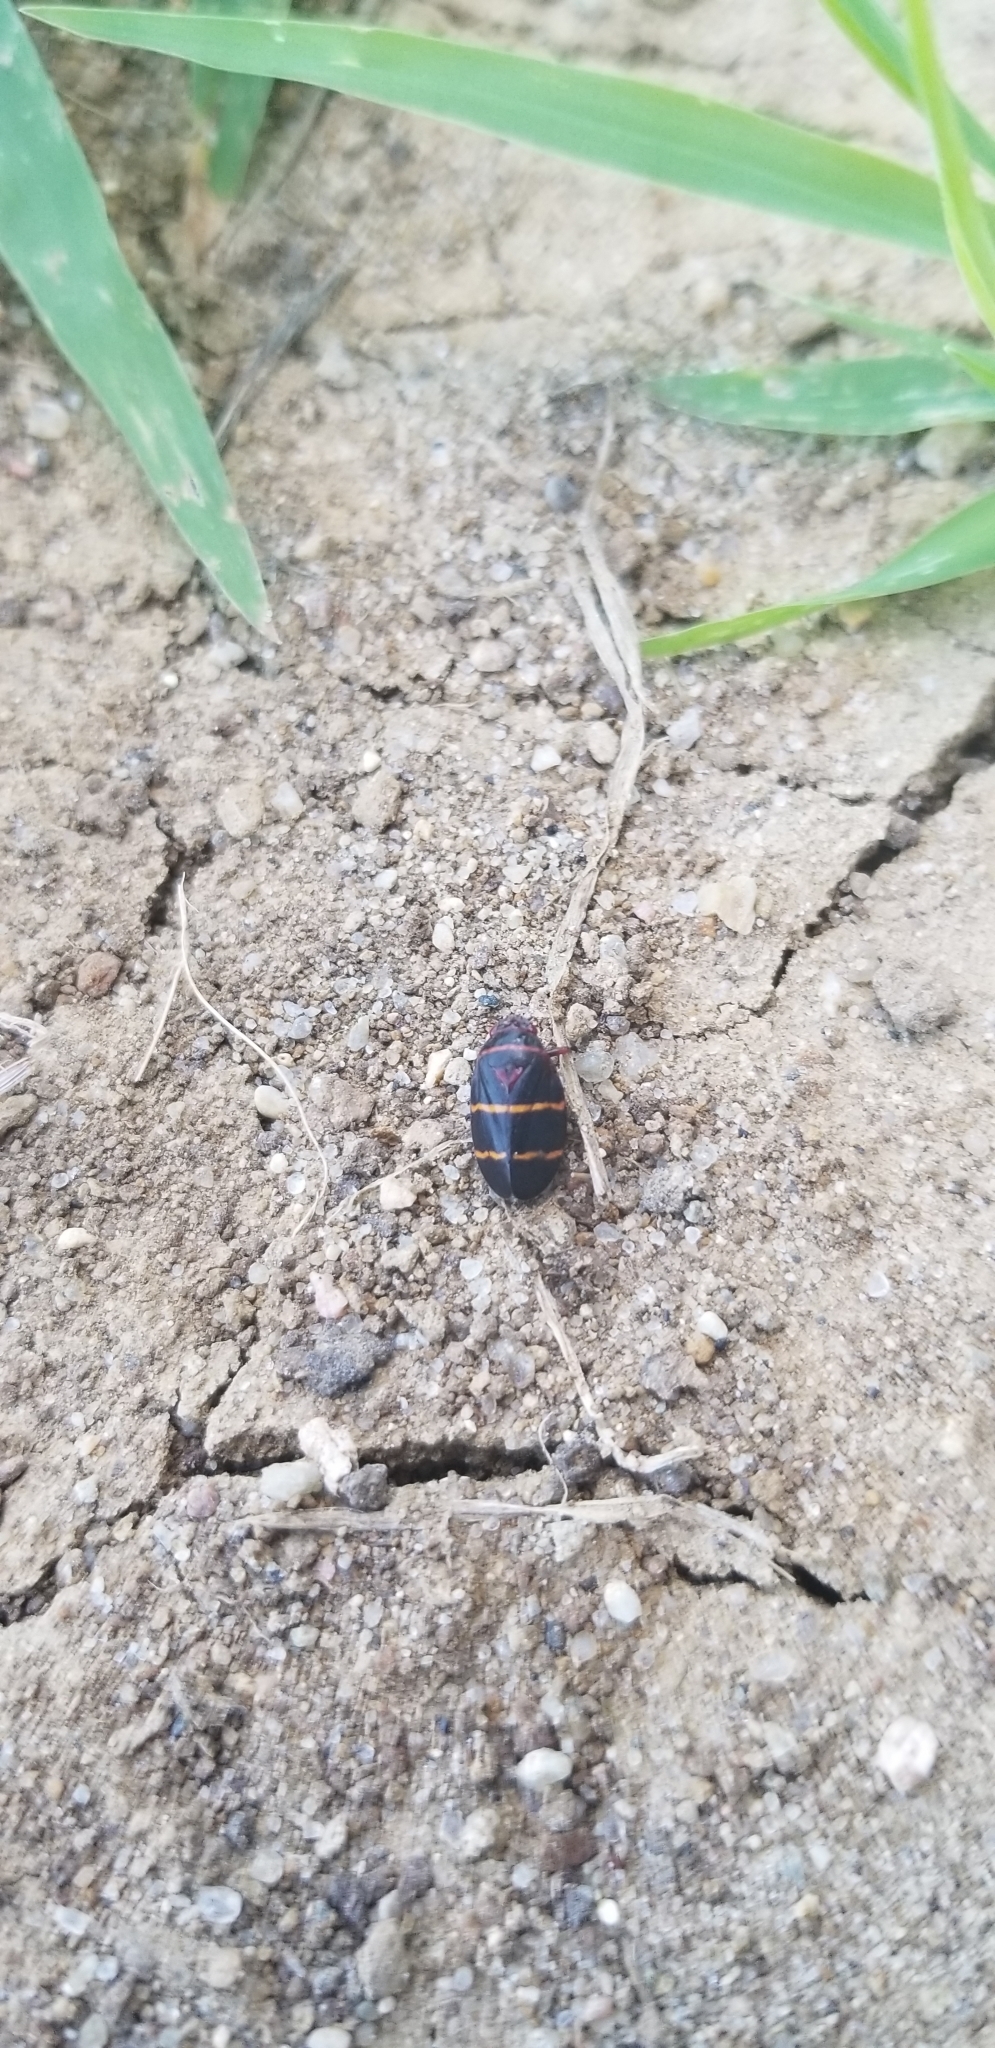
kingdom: Animalia
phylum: Arthropoda
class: Insecta
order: Hemiptera
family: Cercopidae
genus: Prosapia
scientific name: Prosapia bicincta
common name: Twolined spittlebug
